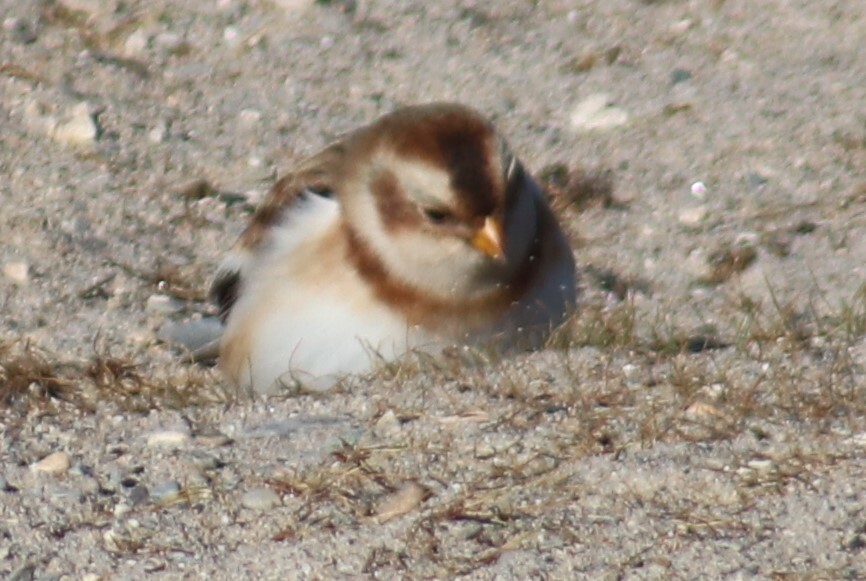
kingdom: Animalia
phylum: Chordata
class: Aves
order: Passeriformes
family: Calcariidae
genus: Plectrophenax
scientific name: Plectrophenax nivalis
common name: Snow bunting
